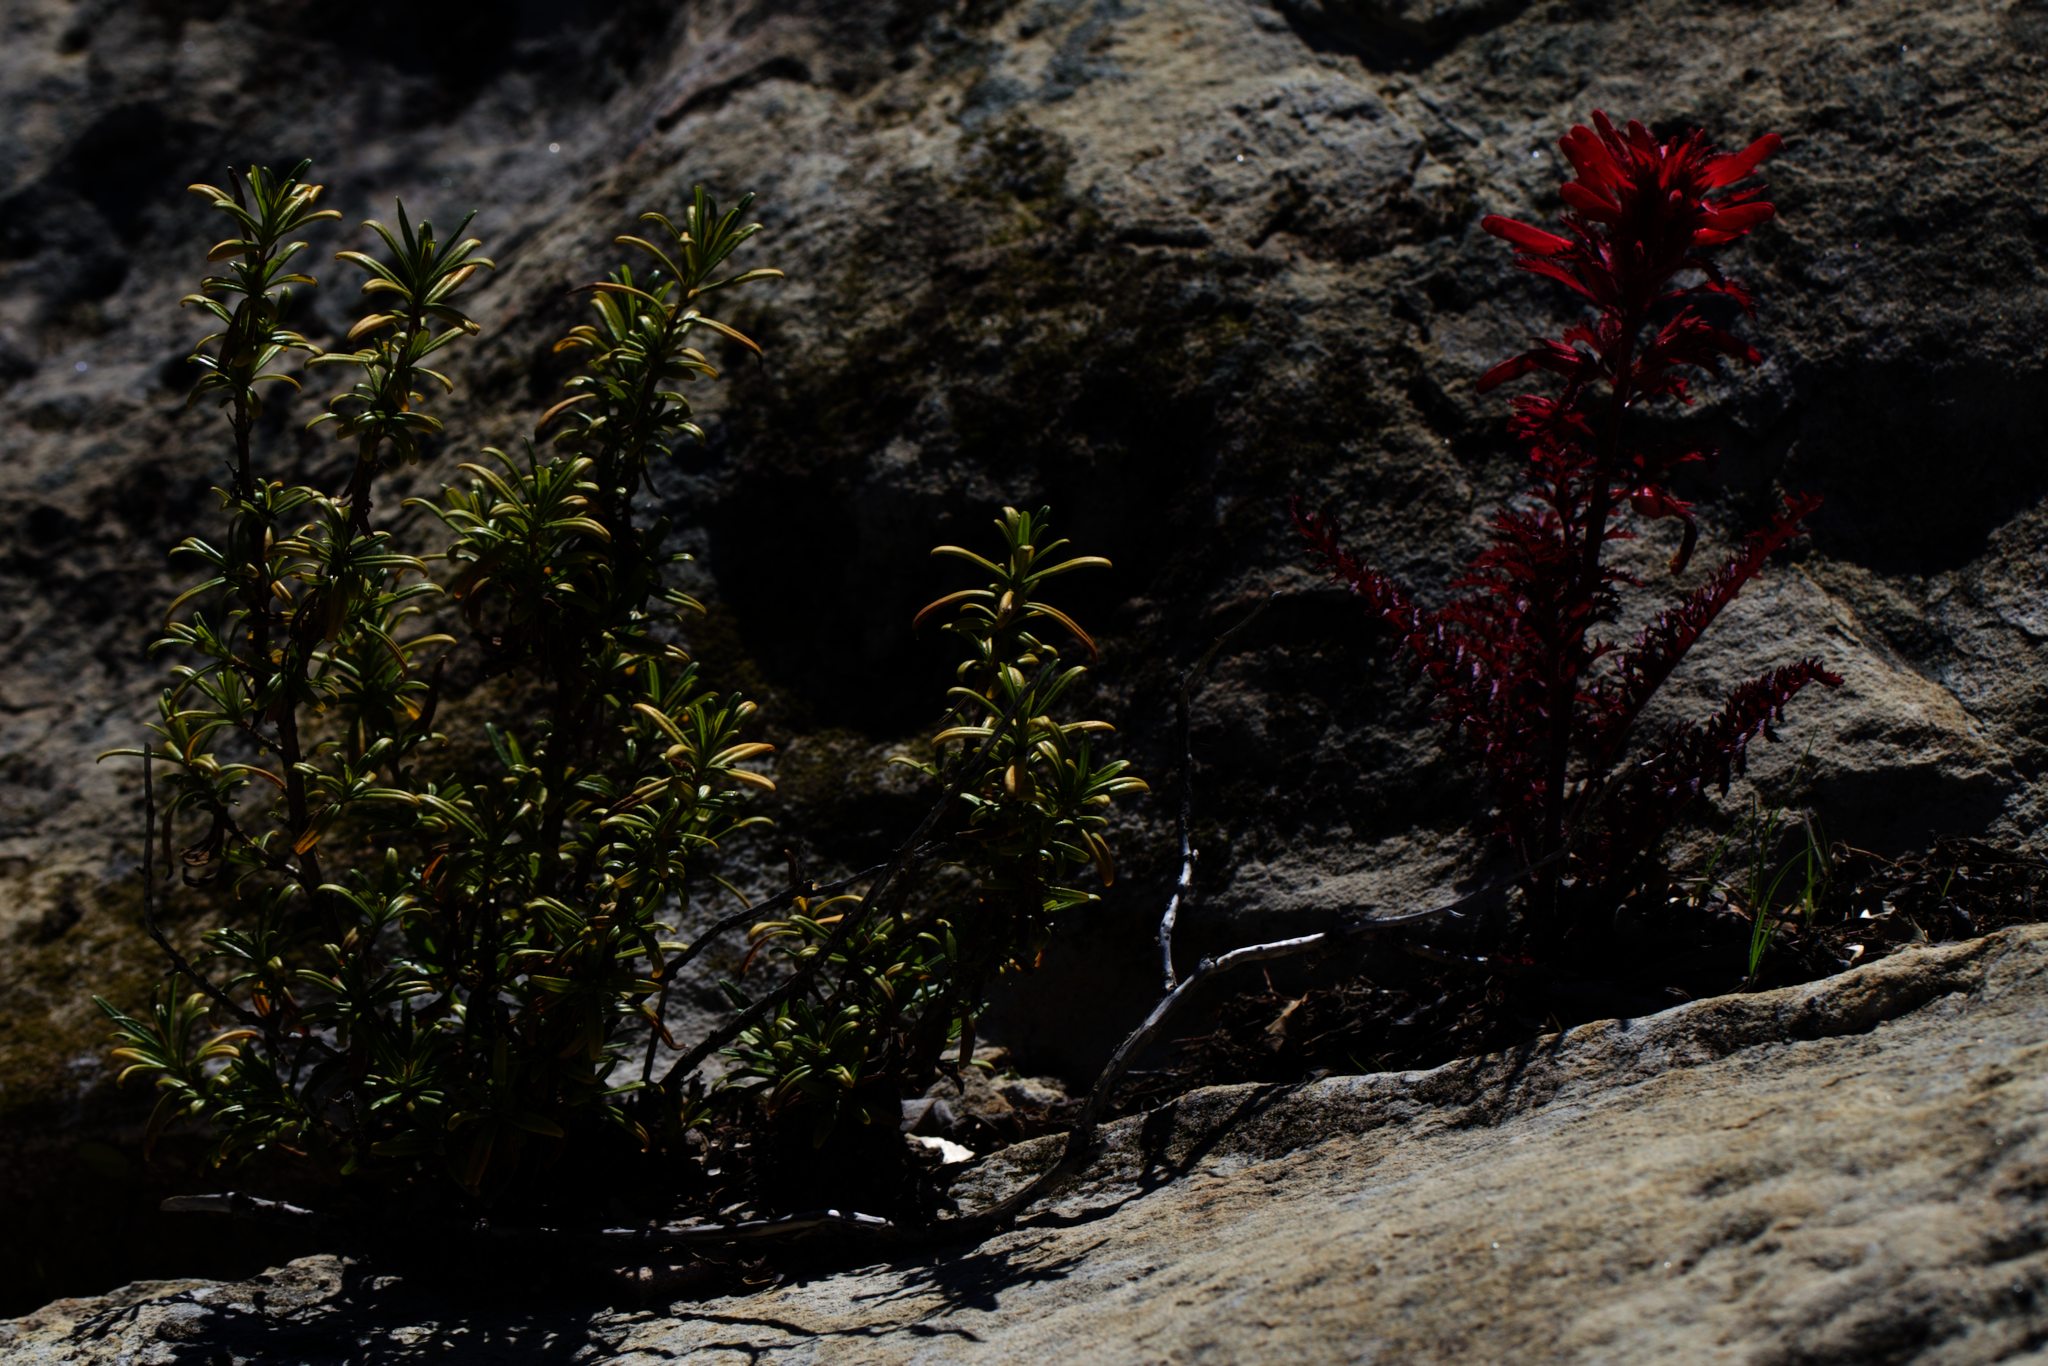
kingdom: Plantae
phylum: Tracheophyta
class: Magnoliopsida
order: Lamiales
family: Orobanchaceae
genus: Pedicularis
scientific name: Pedicularis densiflora
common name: Indian warrior
